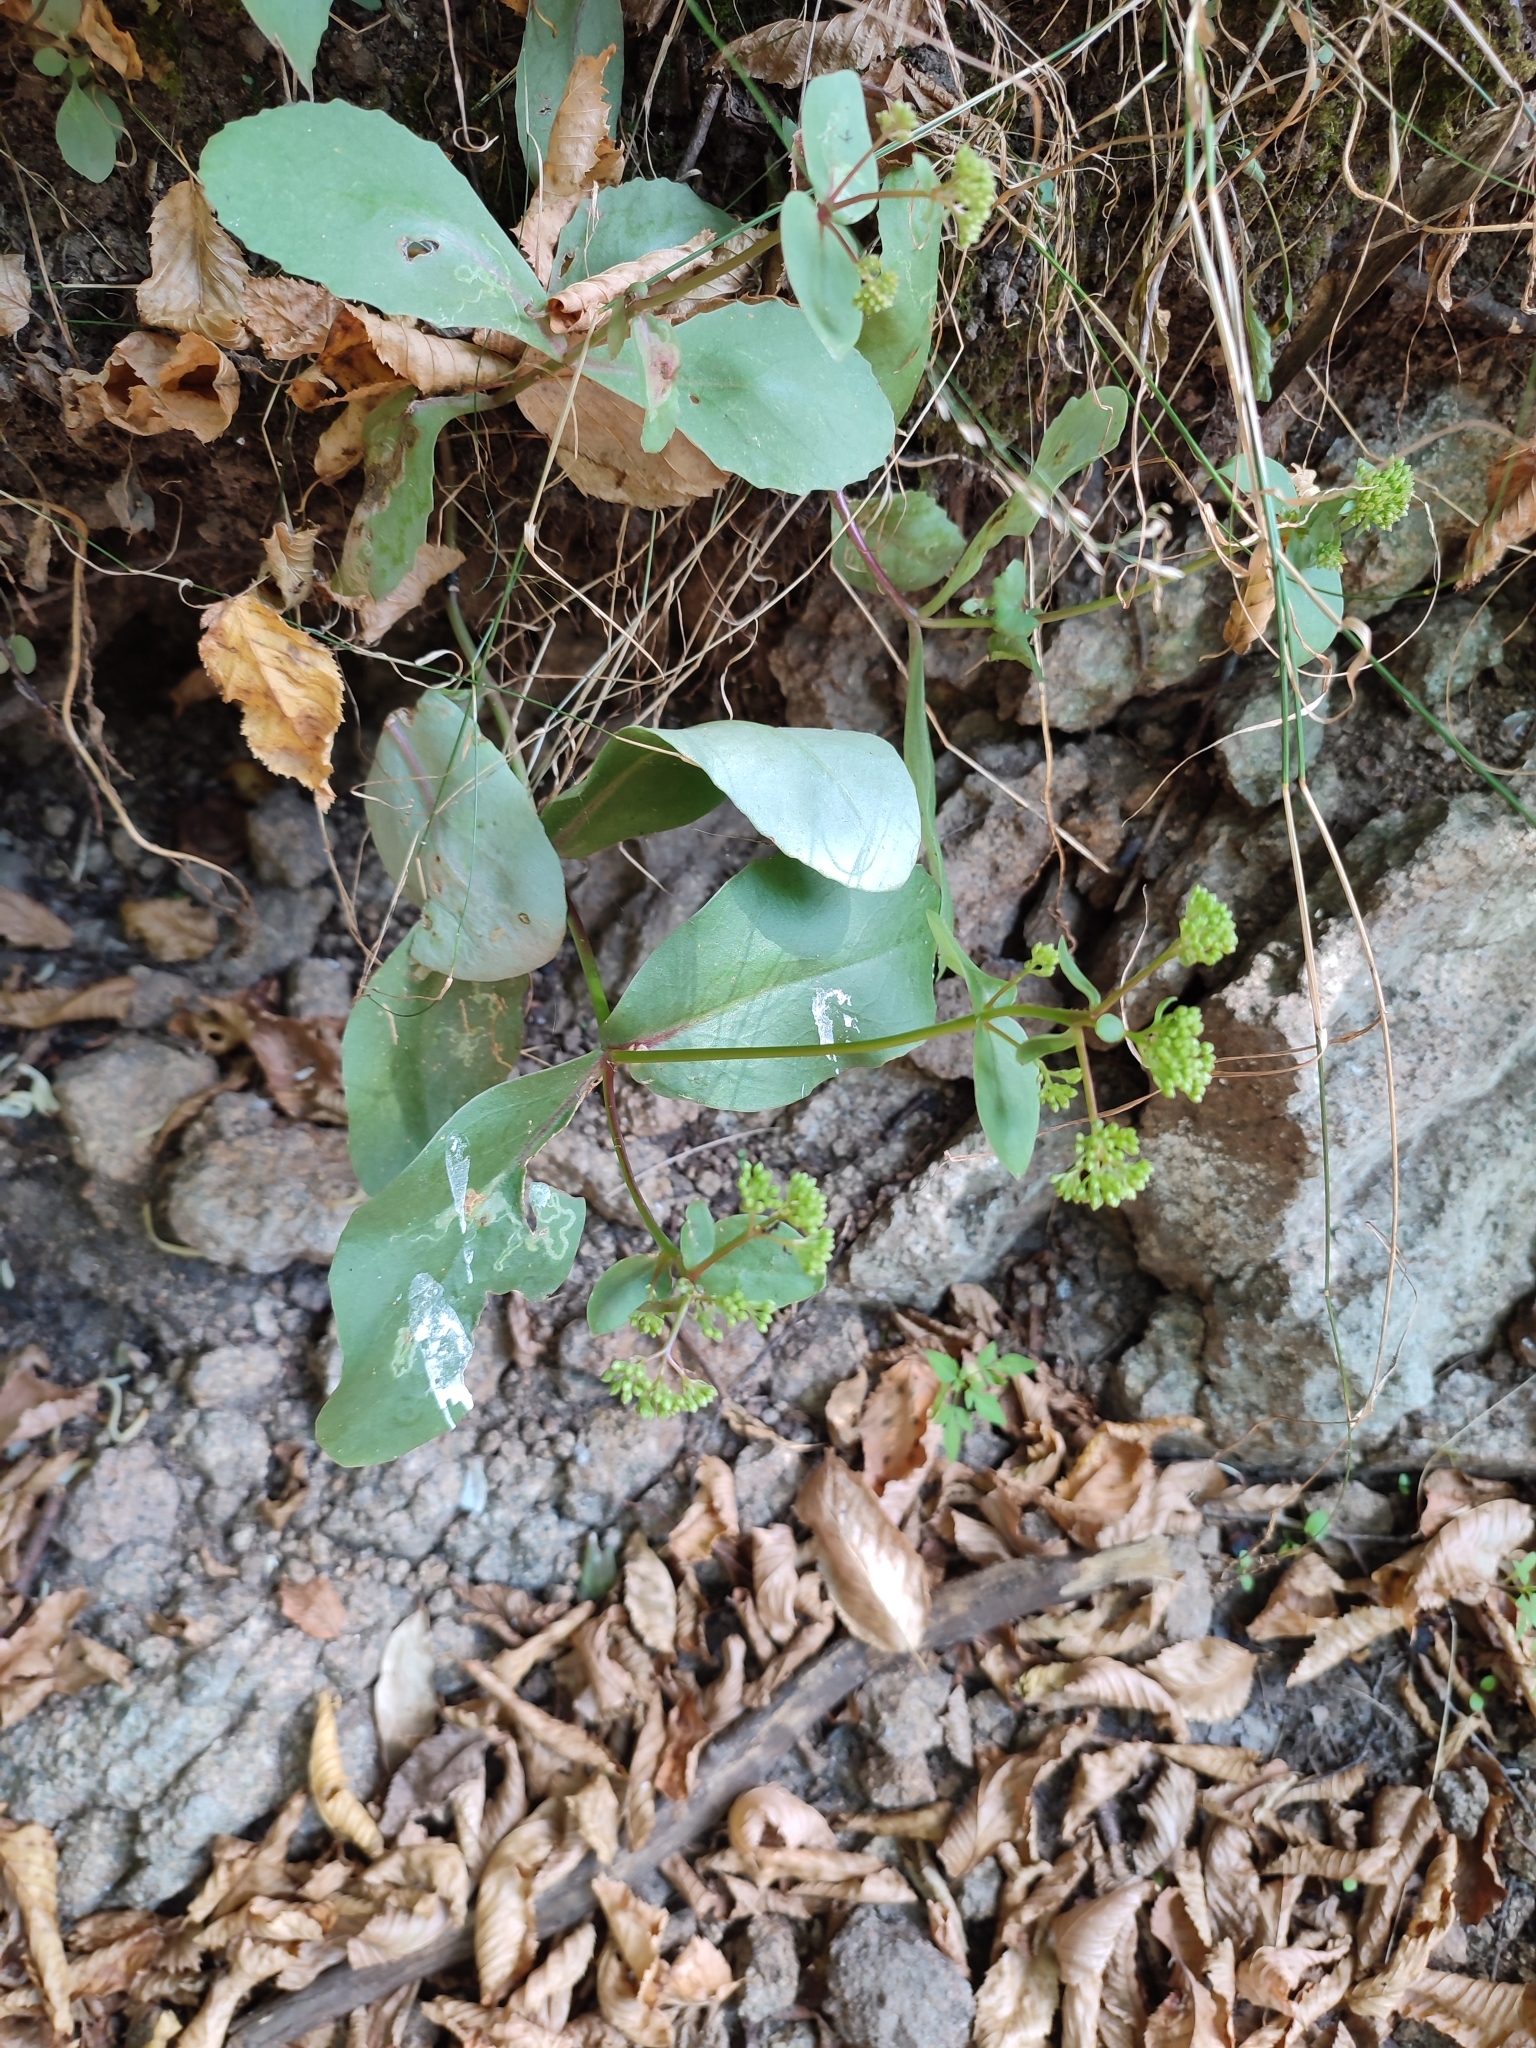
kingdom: Plantae
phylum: Tracheophyta
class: Magnoliopsida
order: Saxifragales
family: Crassulaceae
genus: Hylotelephium
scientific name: Hylotelephium maximum
